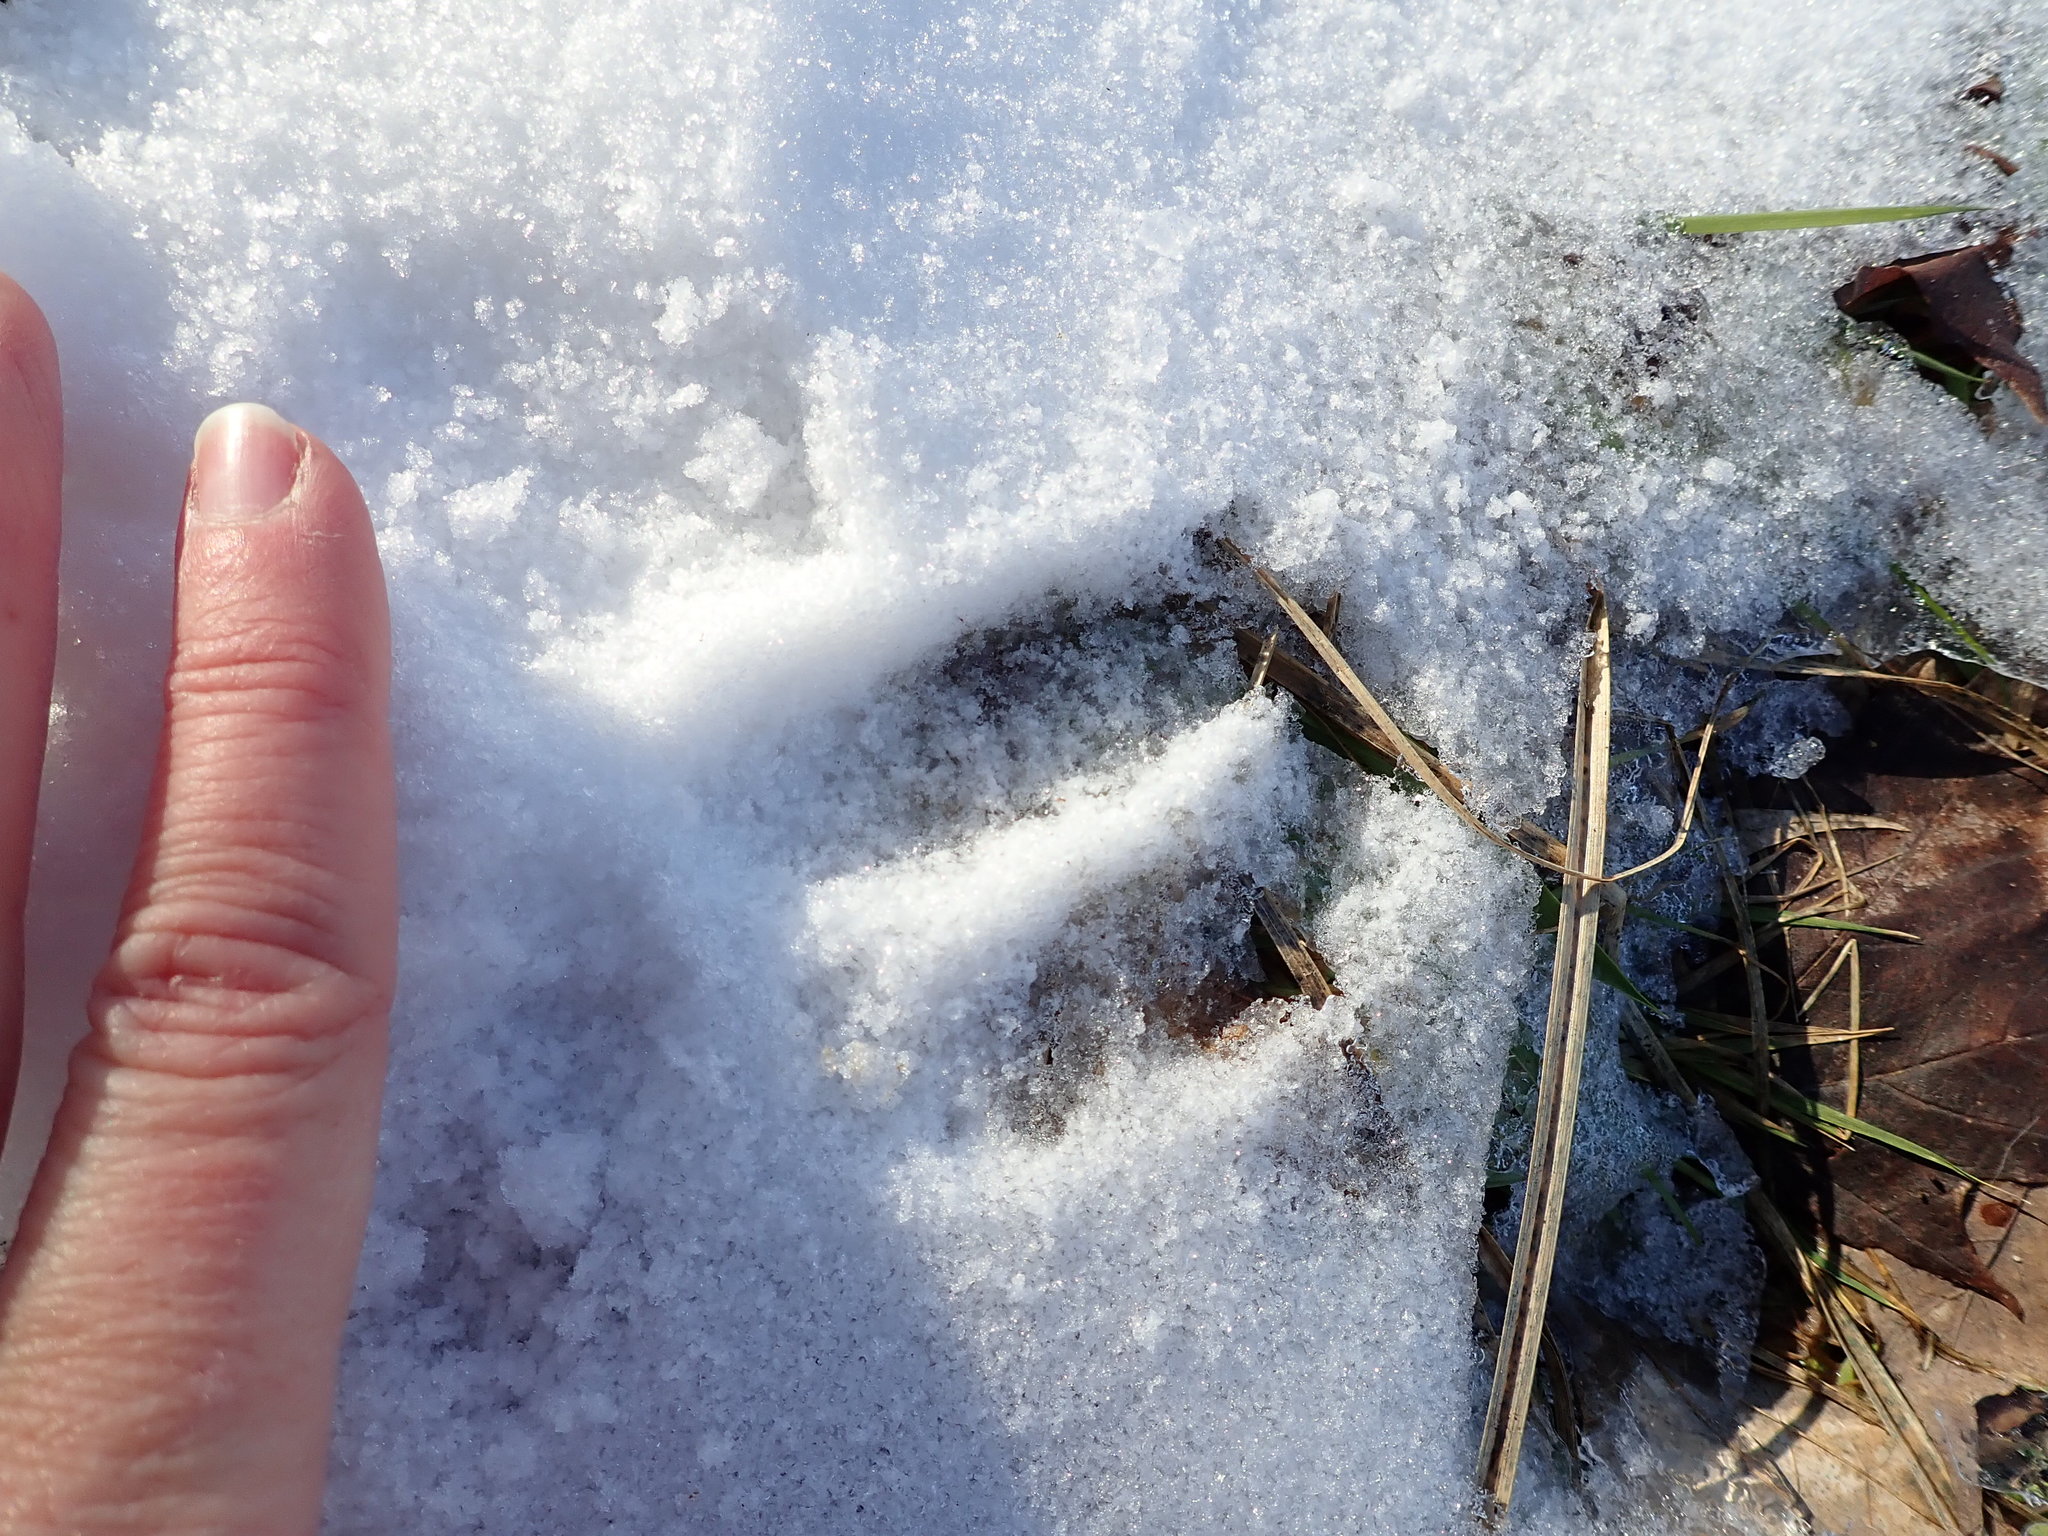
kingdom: Animalia
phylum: Chordata
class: Mammalia
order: Artiodactyla
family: Cervidae
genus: Odocoileus
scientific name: Odocoileus virginianus
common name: White-tailed deer
